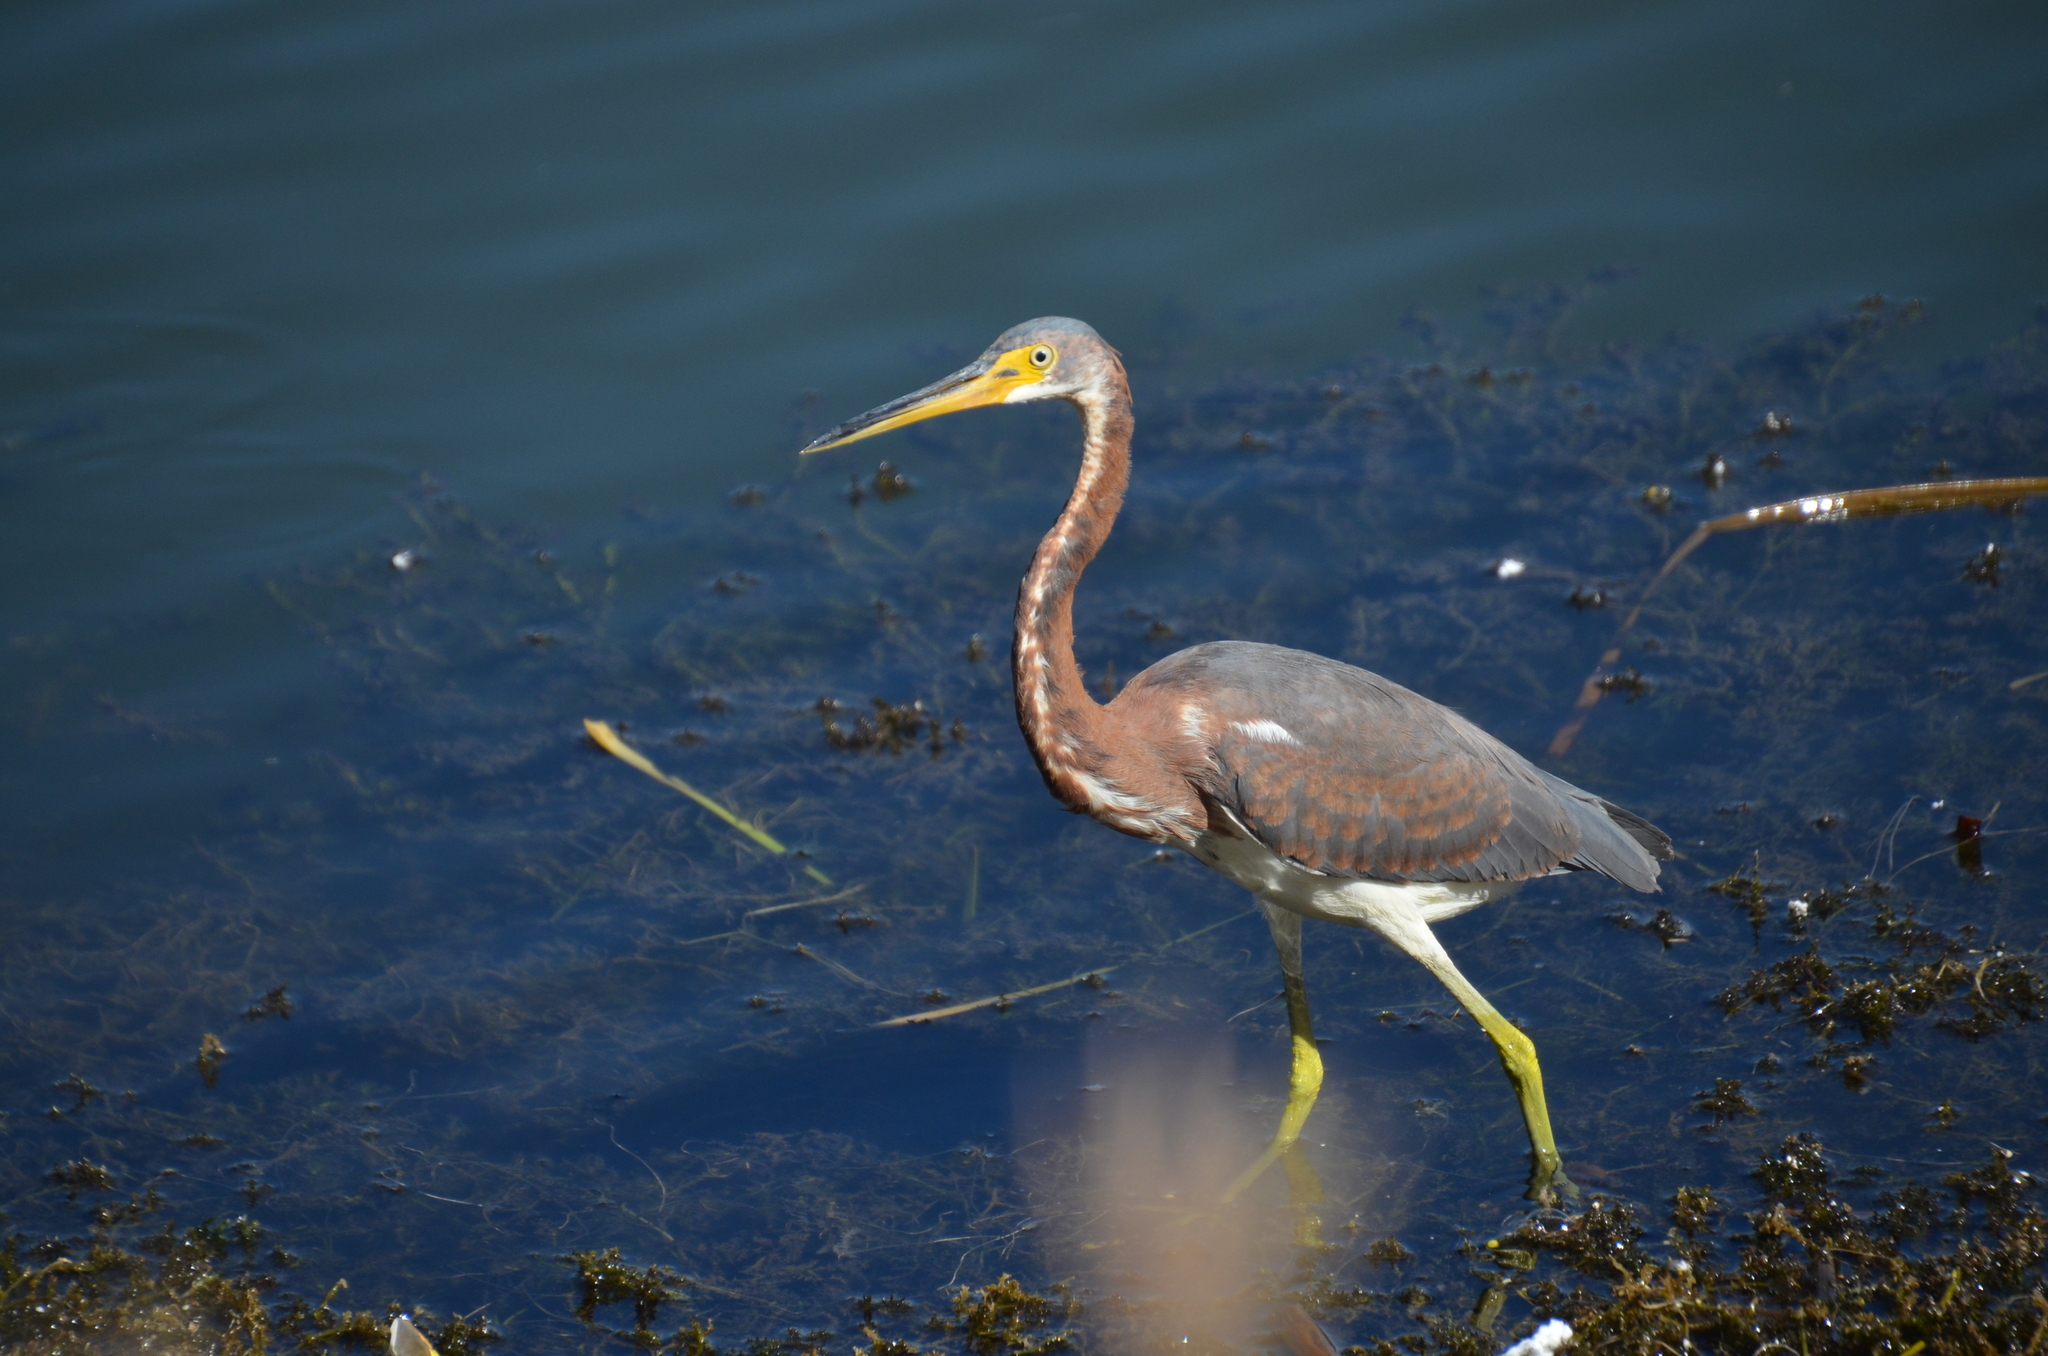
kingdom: Animalia
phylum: Chordata
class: Aves
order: Pelecaniformes
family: Ardeidae
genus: Egretta
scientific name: Egretta tricolor
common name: Tricolored heron
